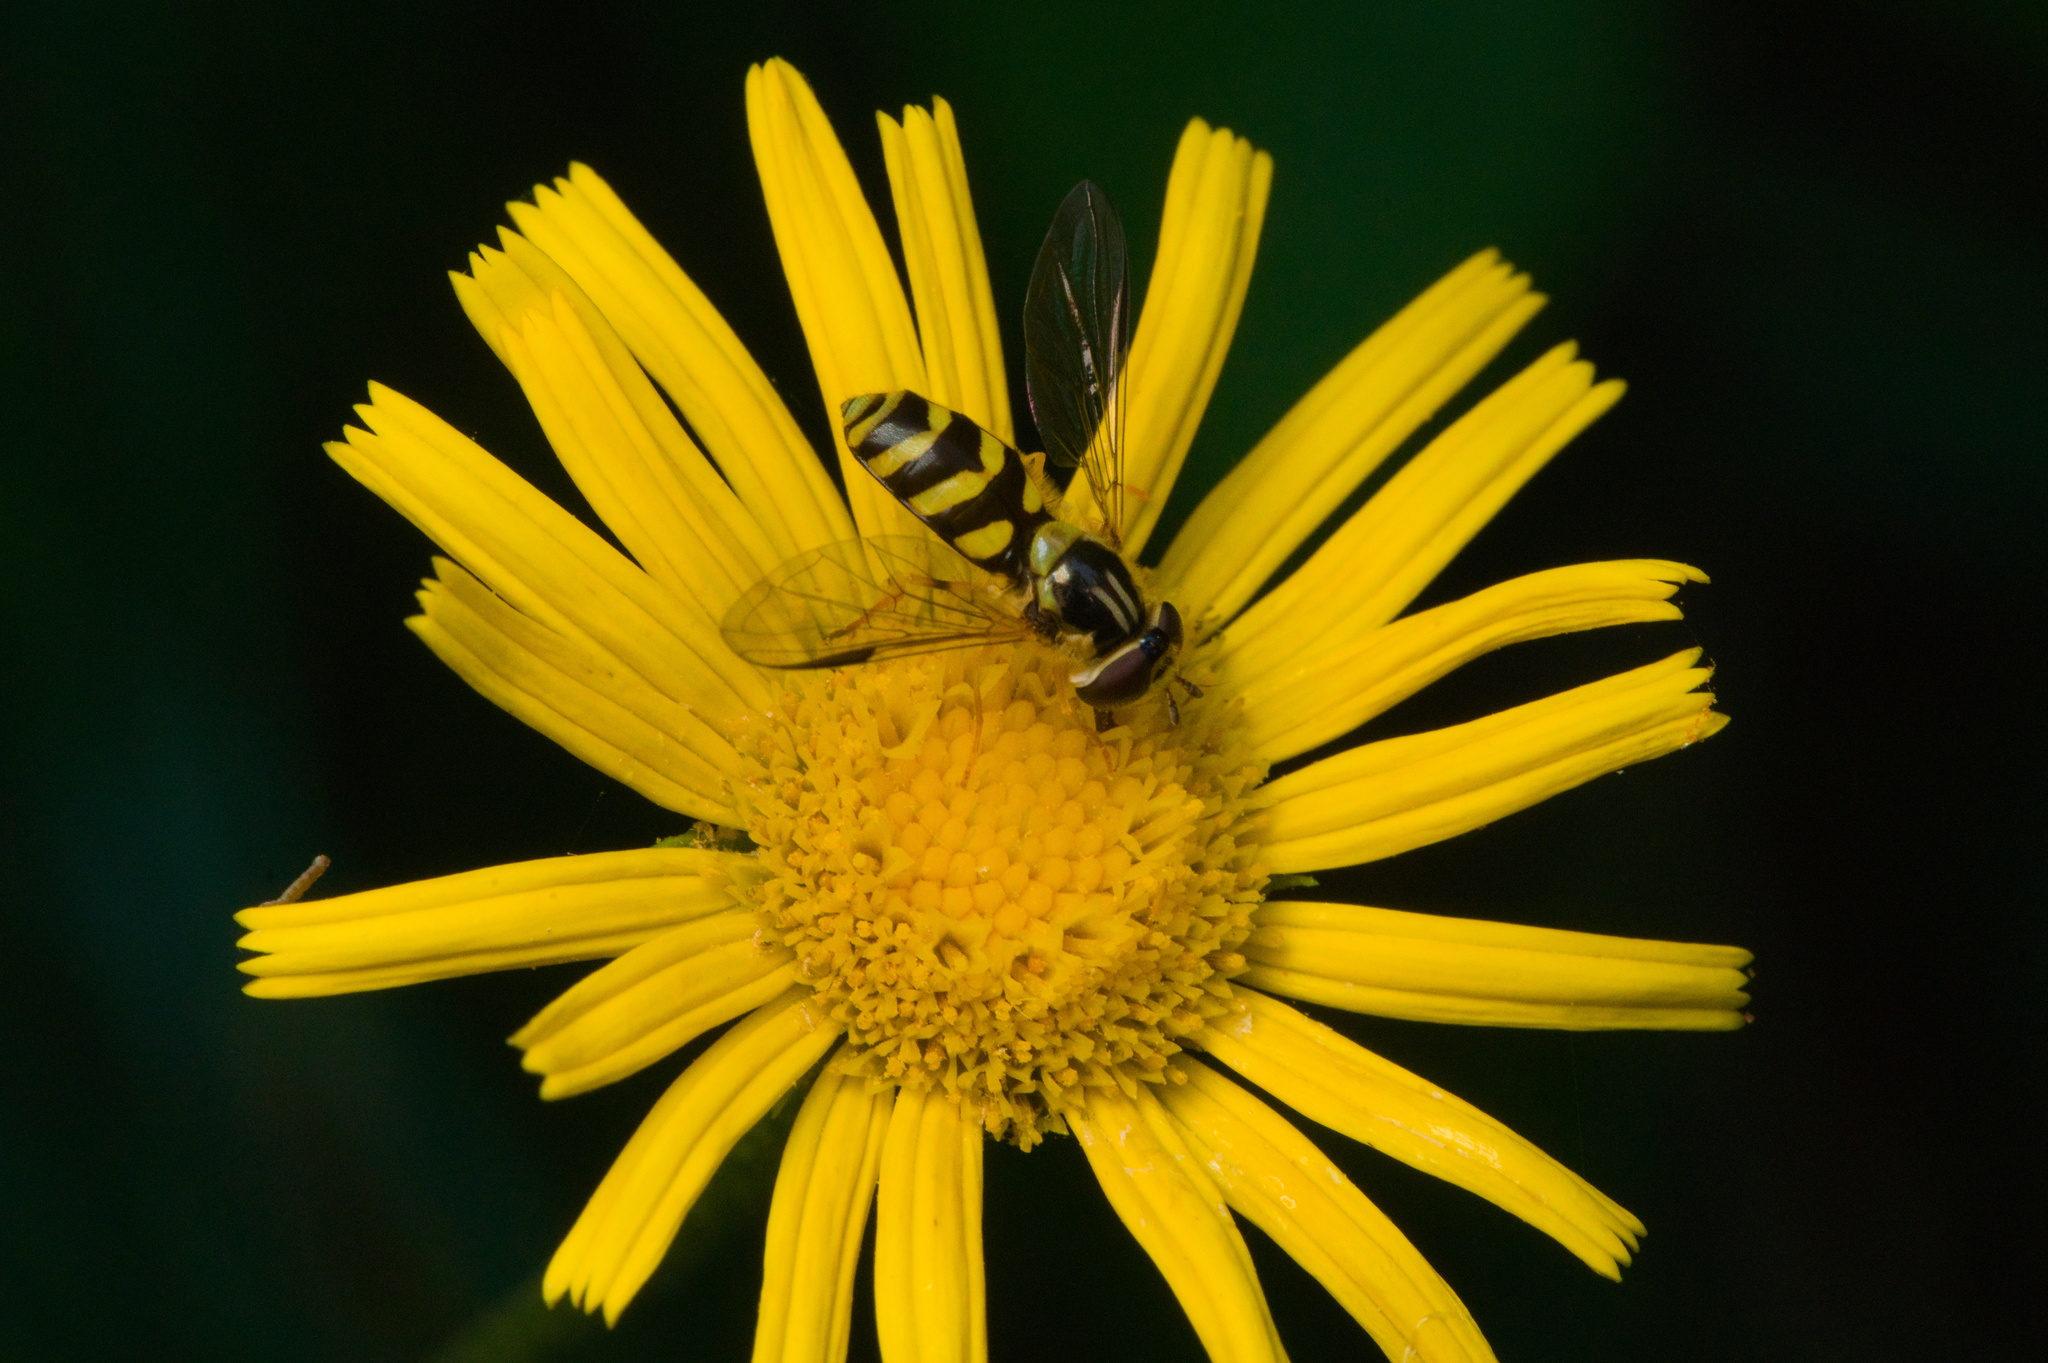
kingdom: Animalia
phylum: Arthropoda
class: Insecta
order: Diptera
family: Syrphidae
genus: Dasysyrphus
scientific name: Dasysyrphus albostriatus
